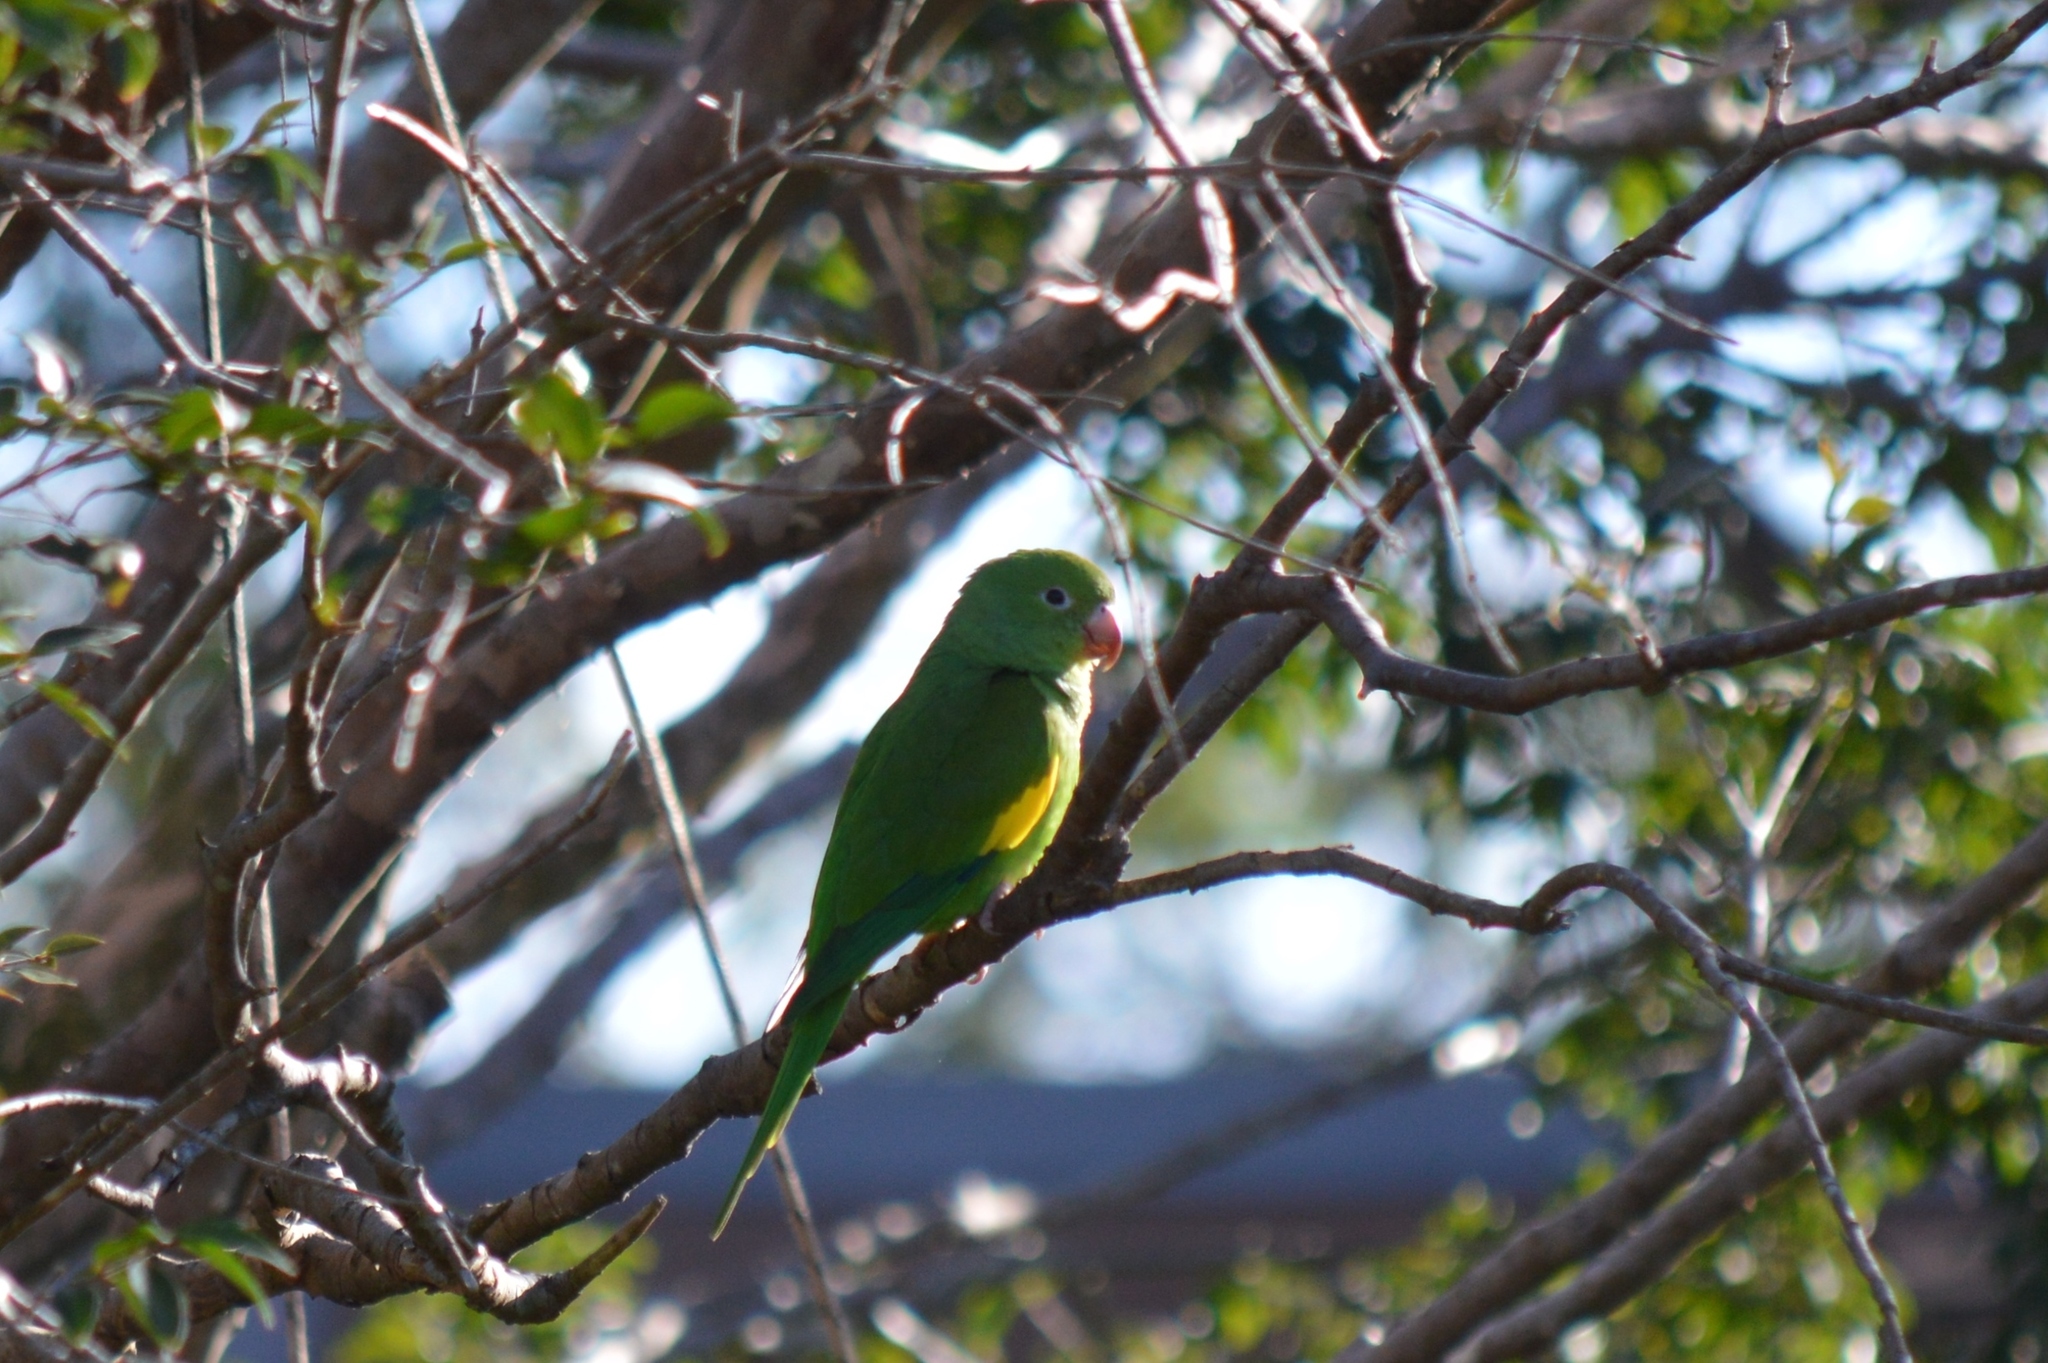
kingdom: Animalia
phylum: Chordata
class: Aves
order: Psittaciformes
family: Psittacidae
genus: Brotogeris
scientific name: Brotogeris chiriri
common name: Yellow-chevroned parakeet
